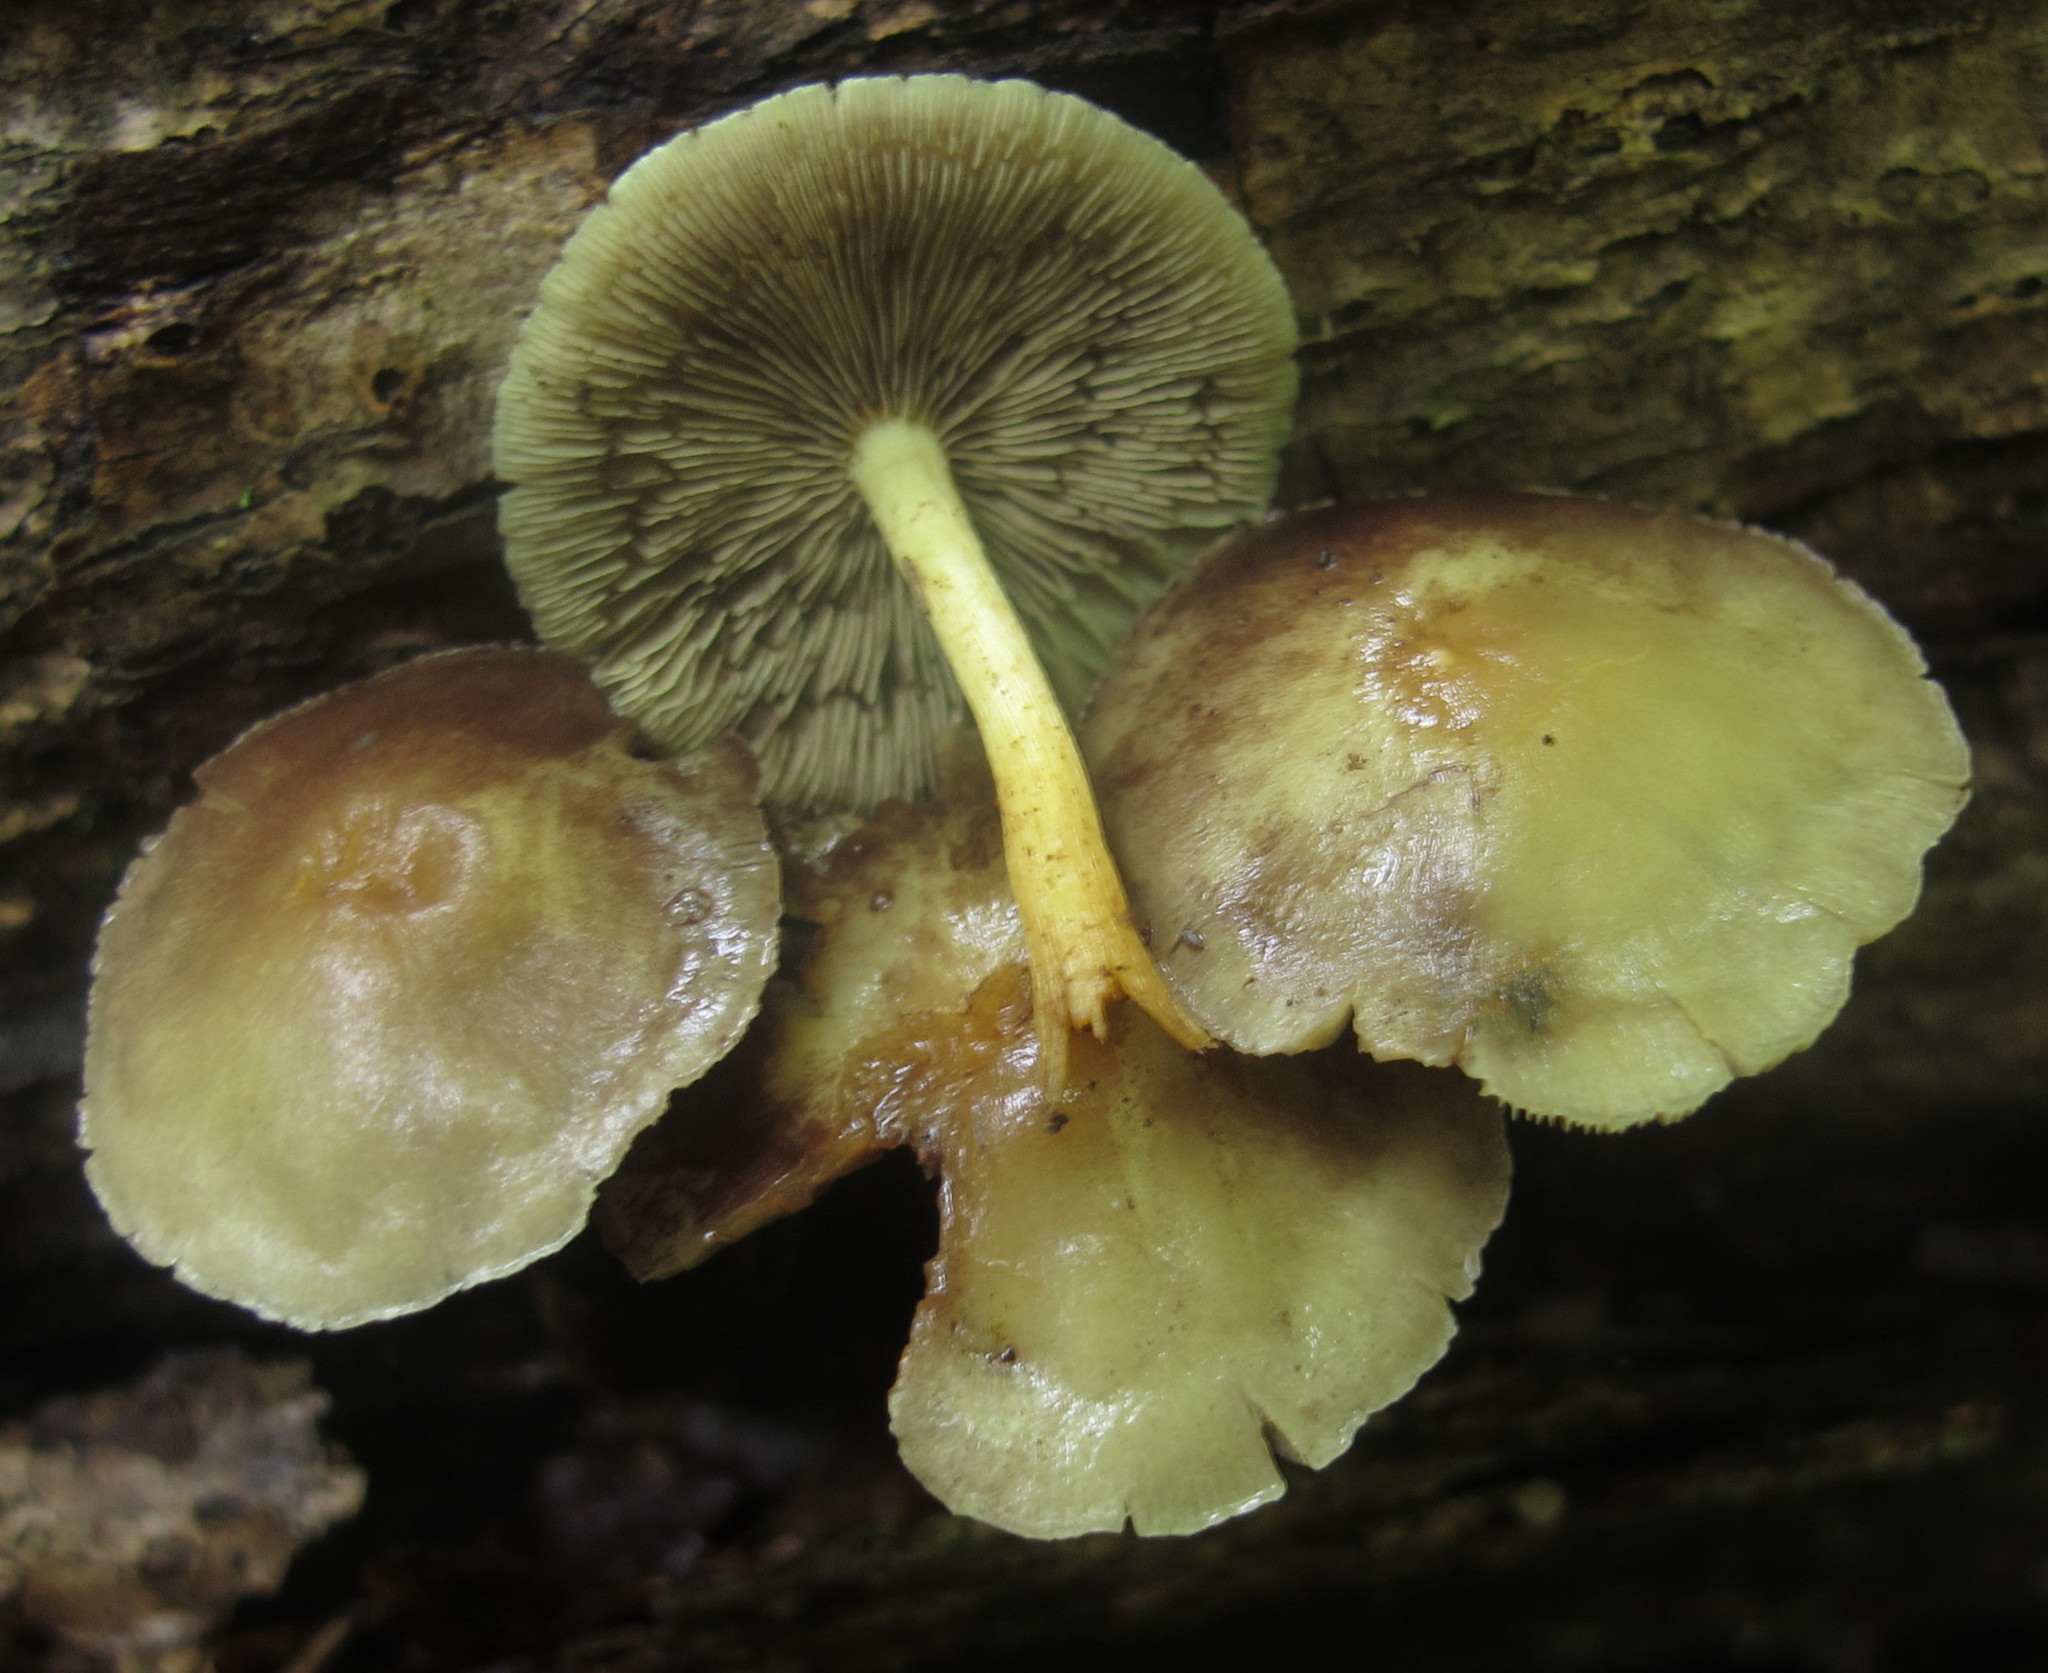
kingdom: Fungi
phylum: Basidiomycota
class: Agaricomycetes
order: Agaricales
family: Strophariaceae
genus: Hypholoma
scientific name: Hypholoma fasciculare
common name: Sulphur tuft
